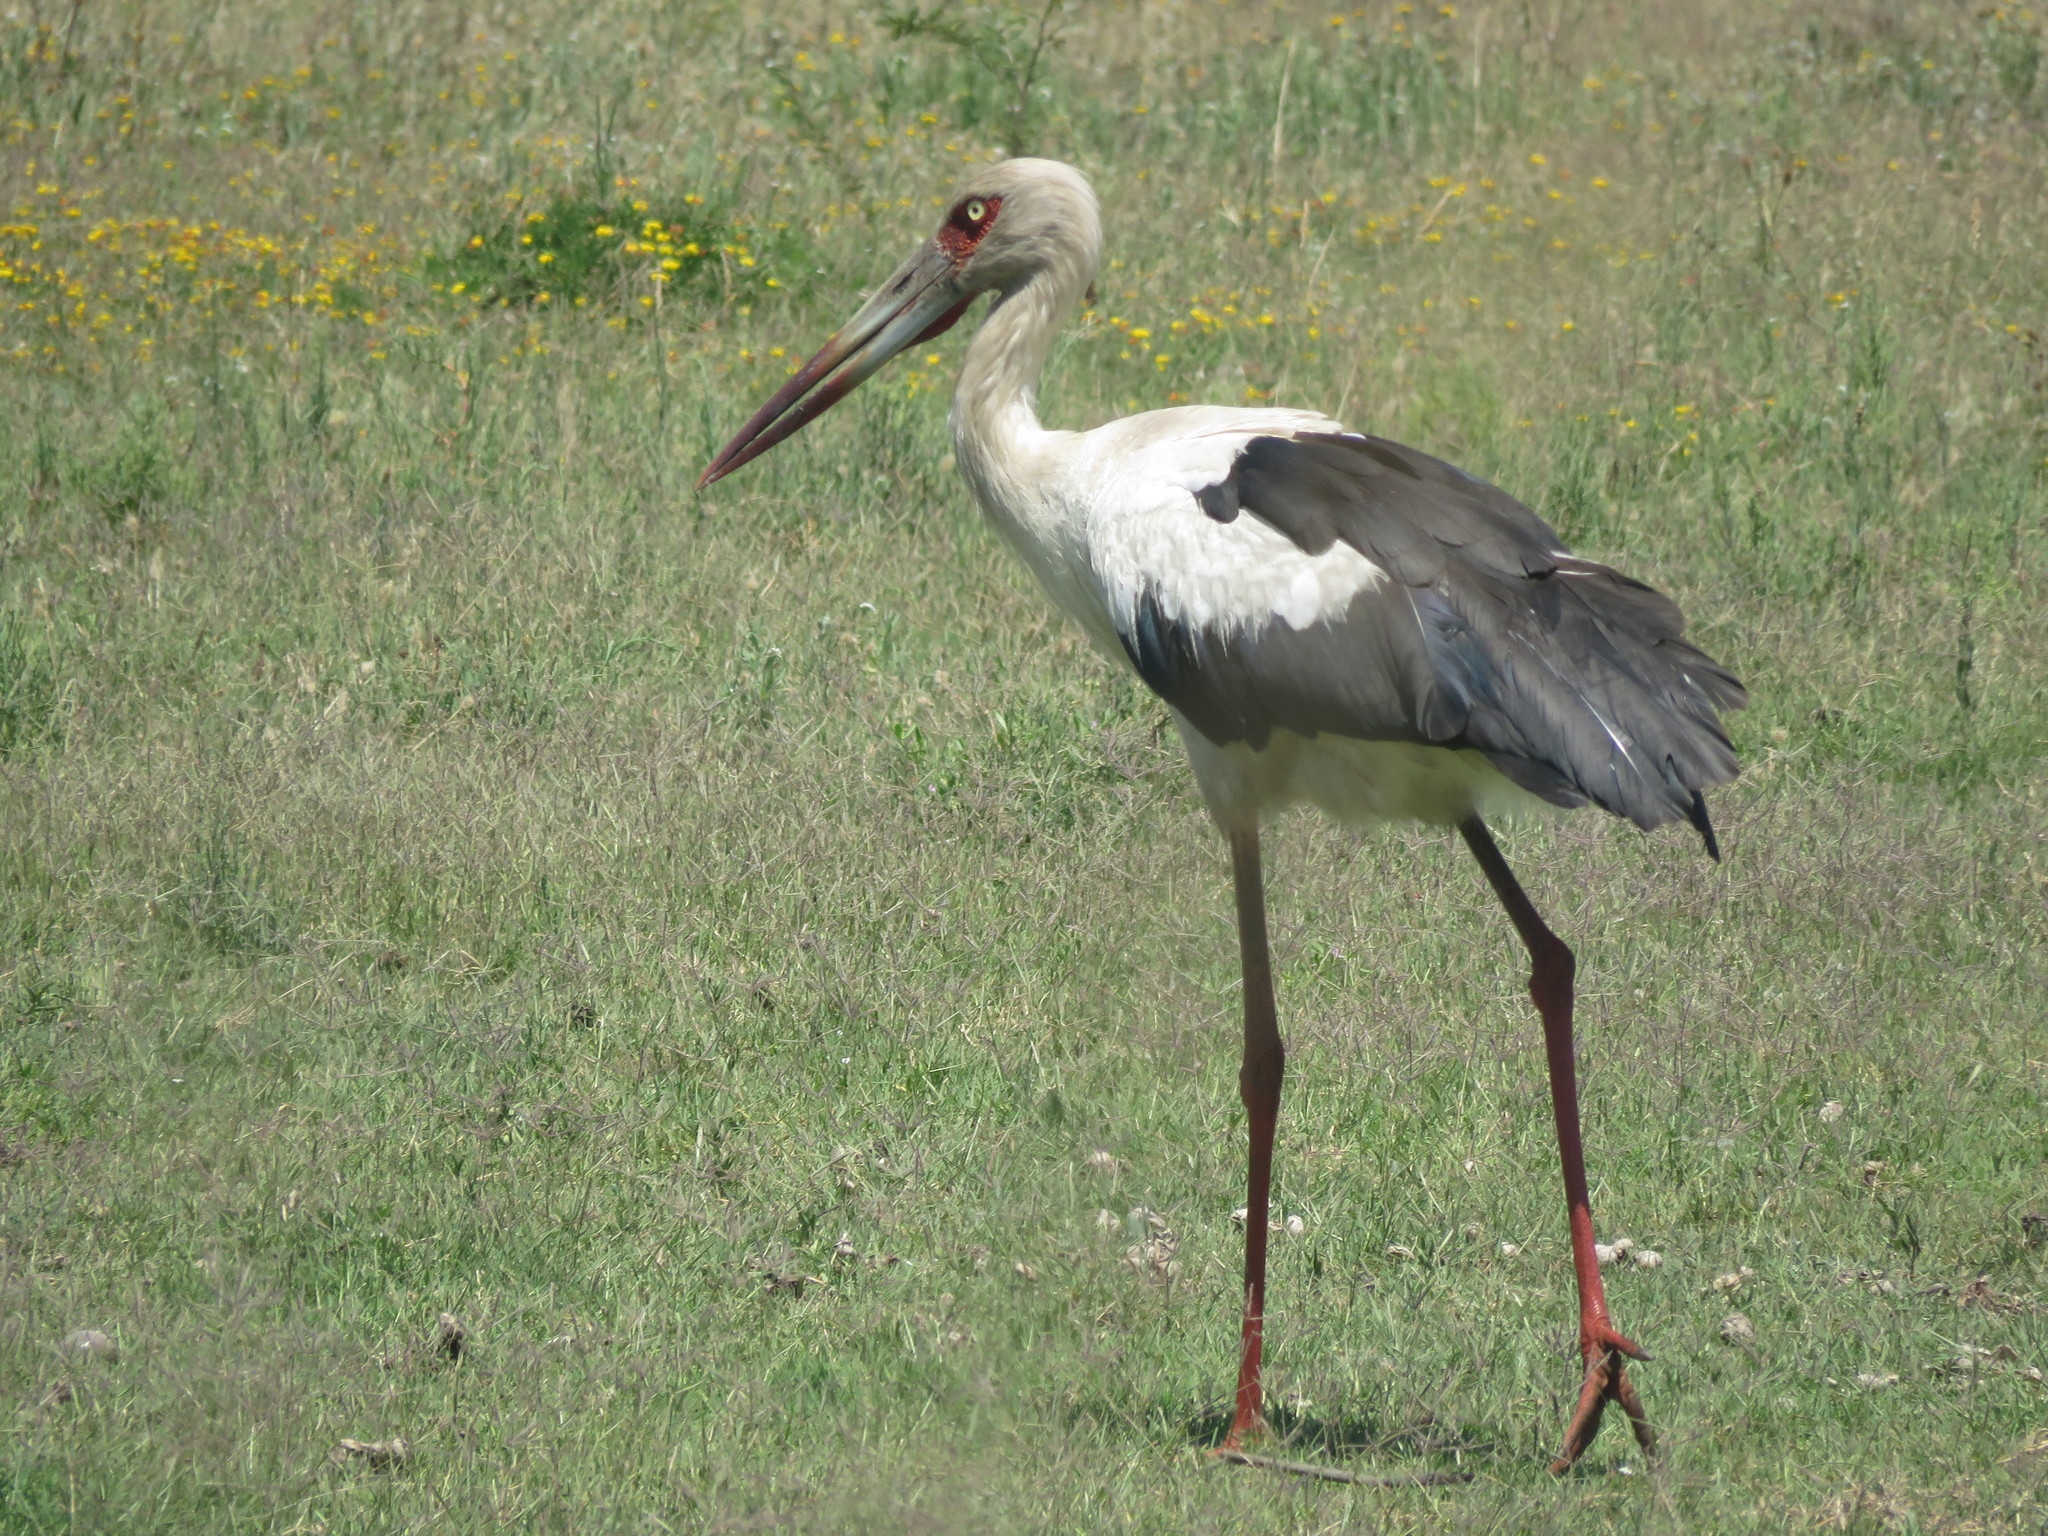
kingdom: Animalia
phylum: Chordata
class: Aves
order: Ciconiiformes
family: Ciconiidae
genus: Ciconia
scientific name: Ciconia maguari
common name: Maguari stork
